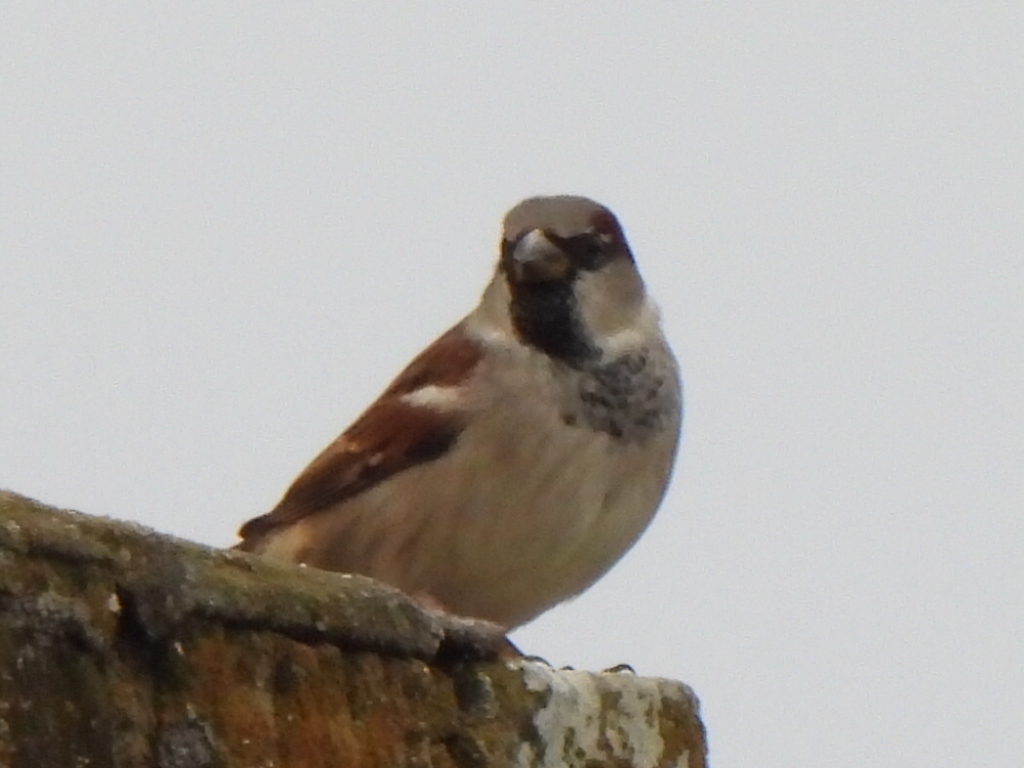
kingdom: Animalia
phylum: Chordata
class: Aves
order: Passeriformes
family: Passeridae
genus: Passer
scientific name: Passer domesticus
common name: House sparrow
